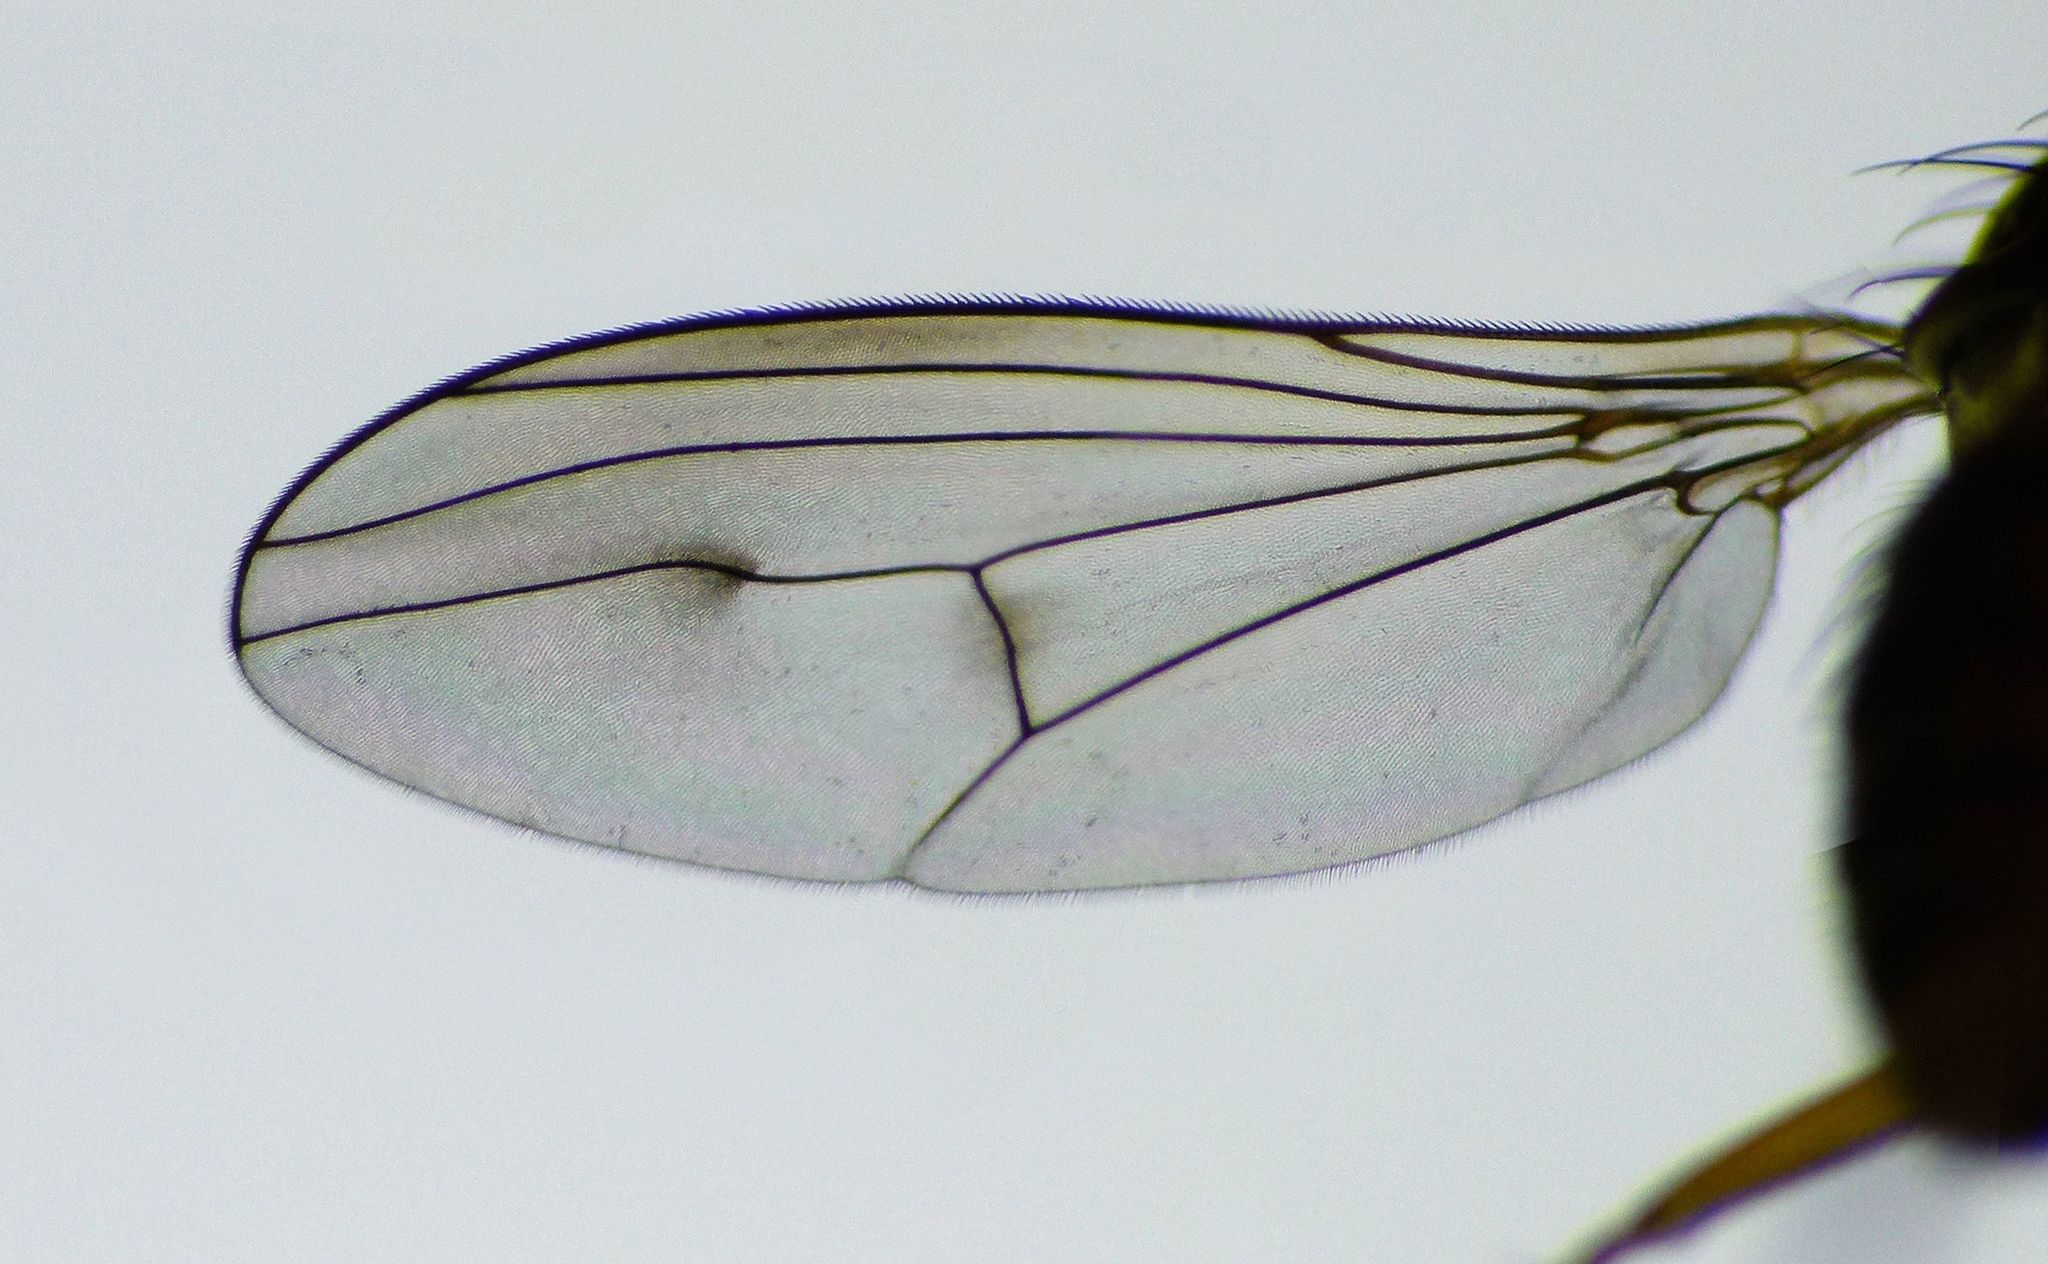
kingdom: Animalia
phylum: Arthropoda
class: Insecta
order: Diptera
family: Dolichopodidae
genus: Helichochaetus
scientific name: Helichochaetus discifer
